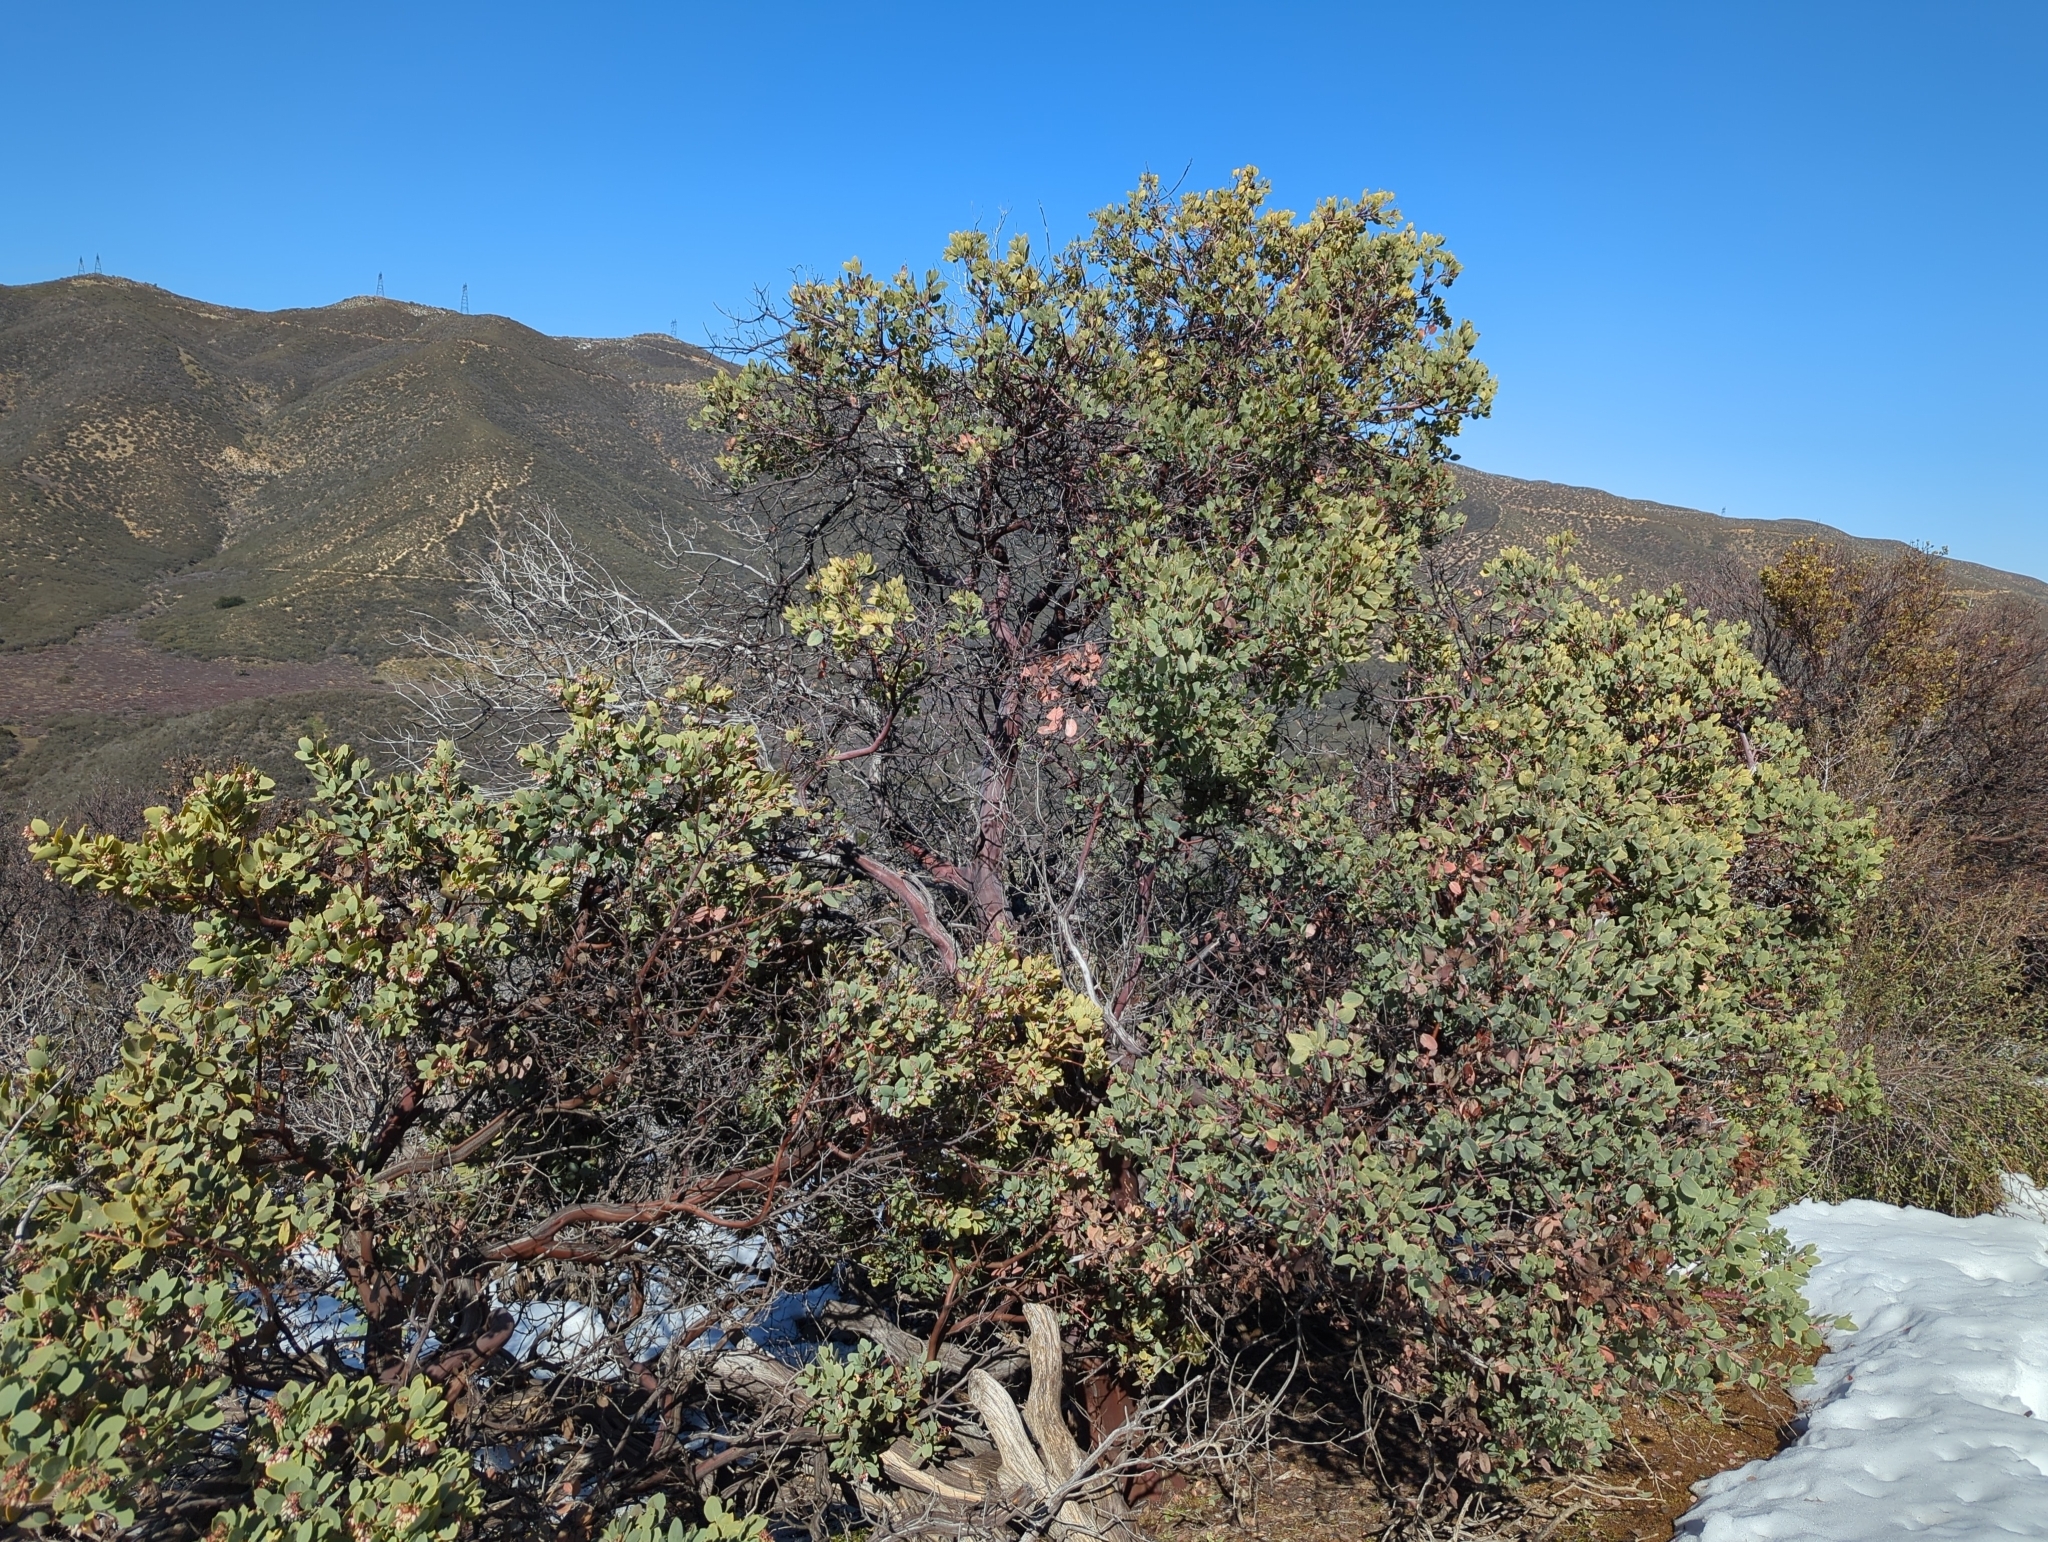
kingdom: Plantae
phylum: Tracheophyta
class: Magnoliopsida
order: Ericales
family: Ericaceae
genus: Arctostaphylos
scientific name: Arctostaphylos glauca
